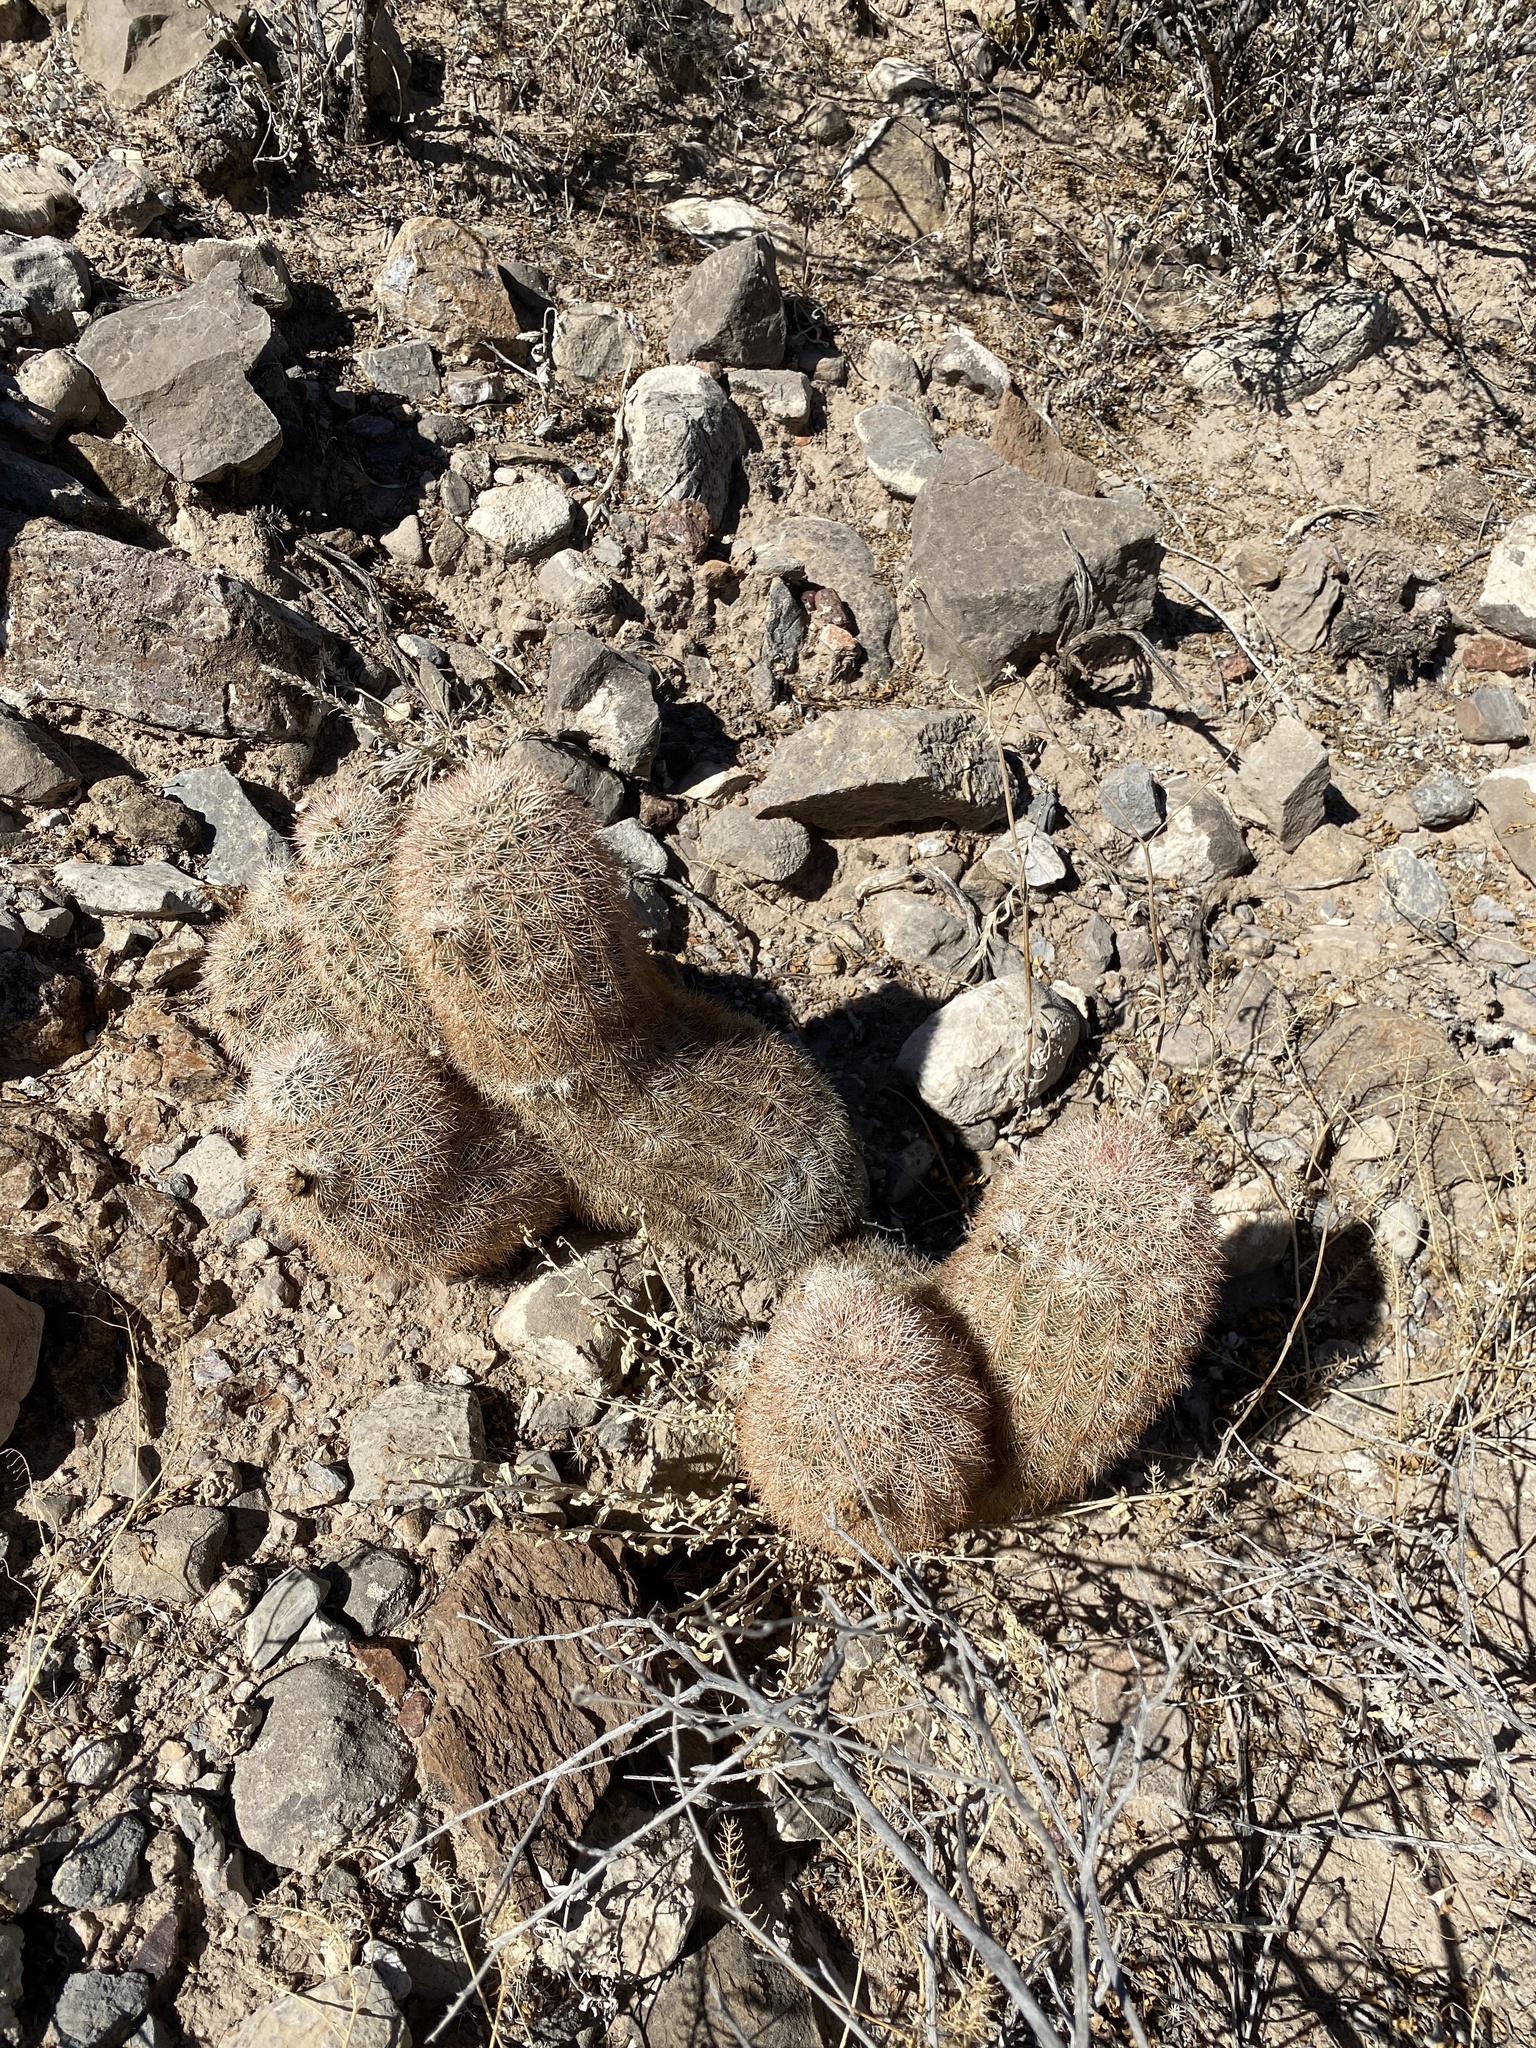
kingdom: Plantae
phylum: Tracheophyta
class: Magnoliopsida
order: Caryophyllales
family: Cactaceae
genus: Echinocereus
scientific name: Echinocereus dasyacanthus
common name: Spiny hedgehog cactus
